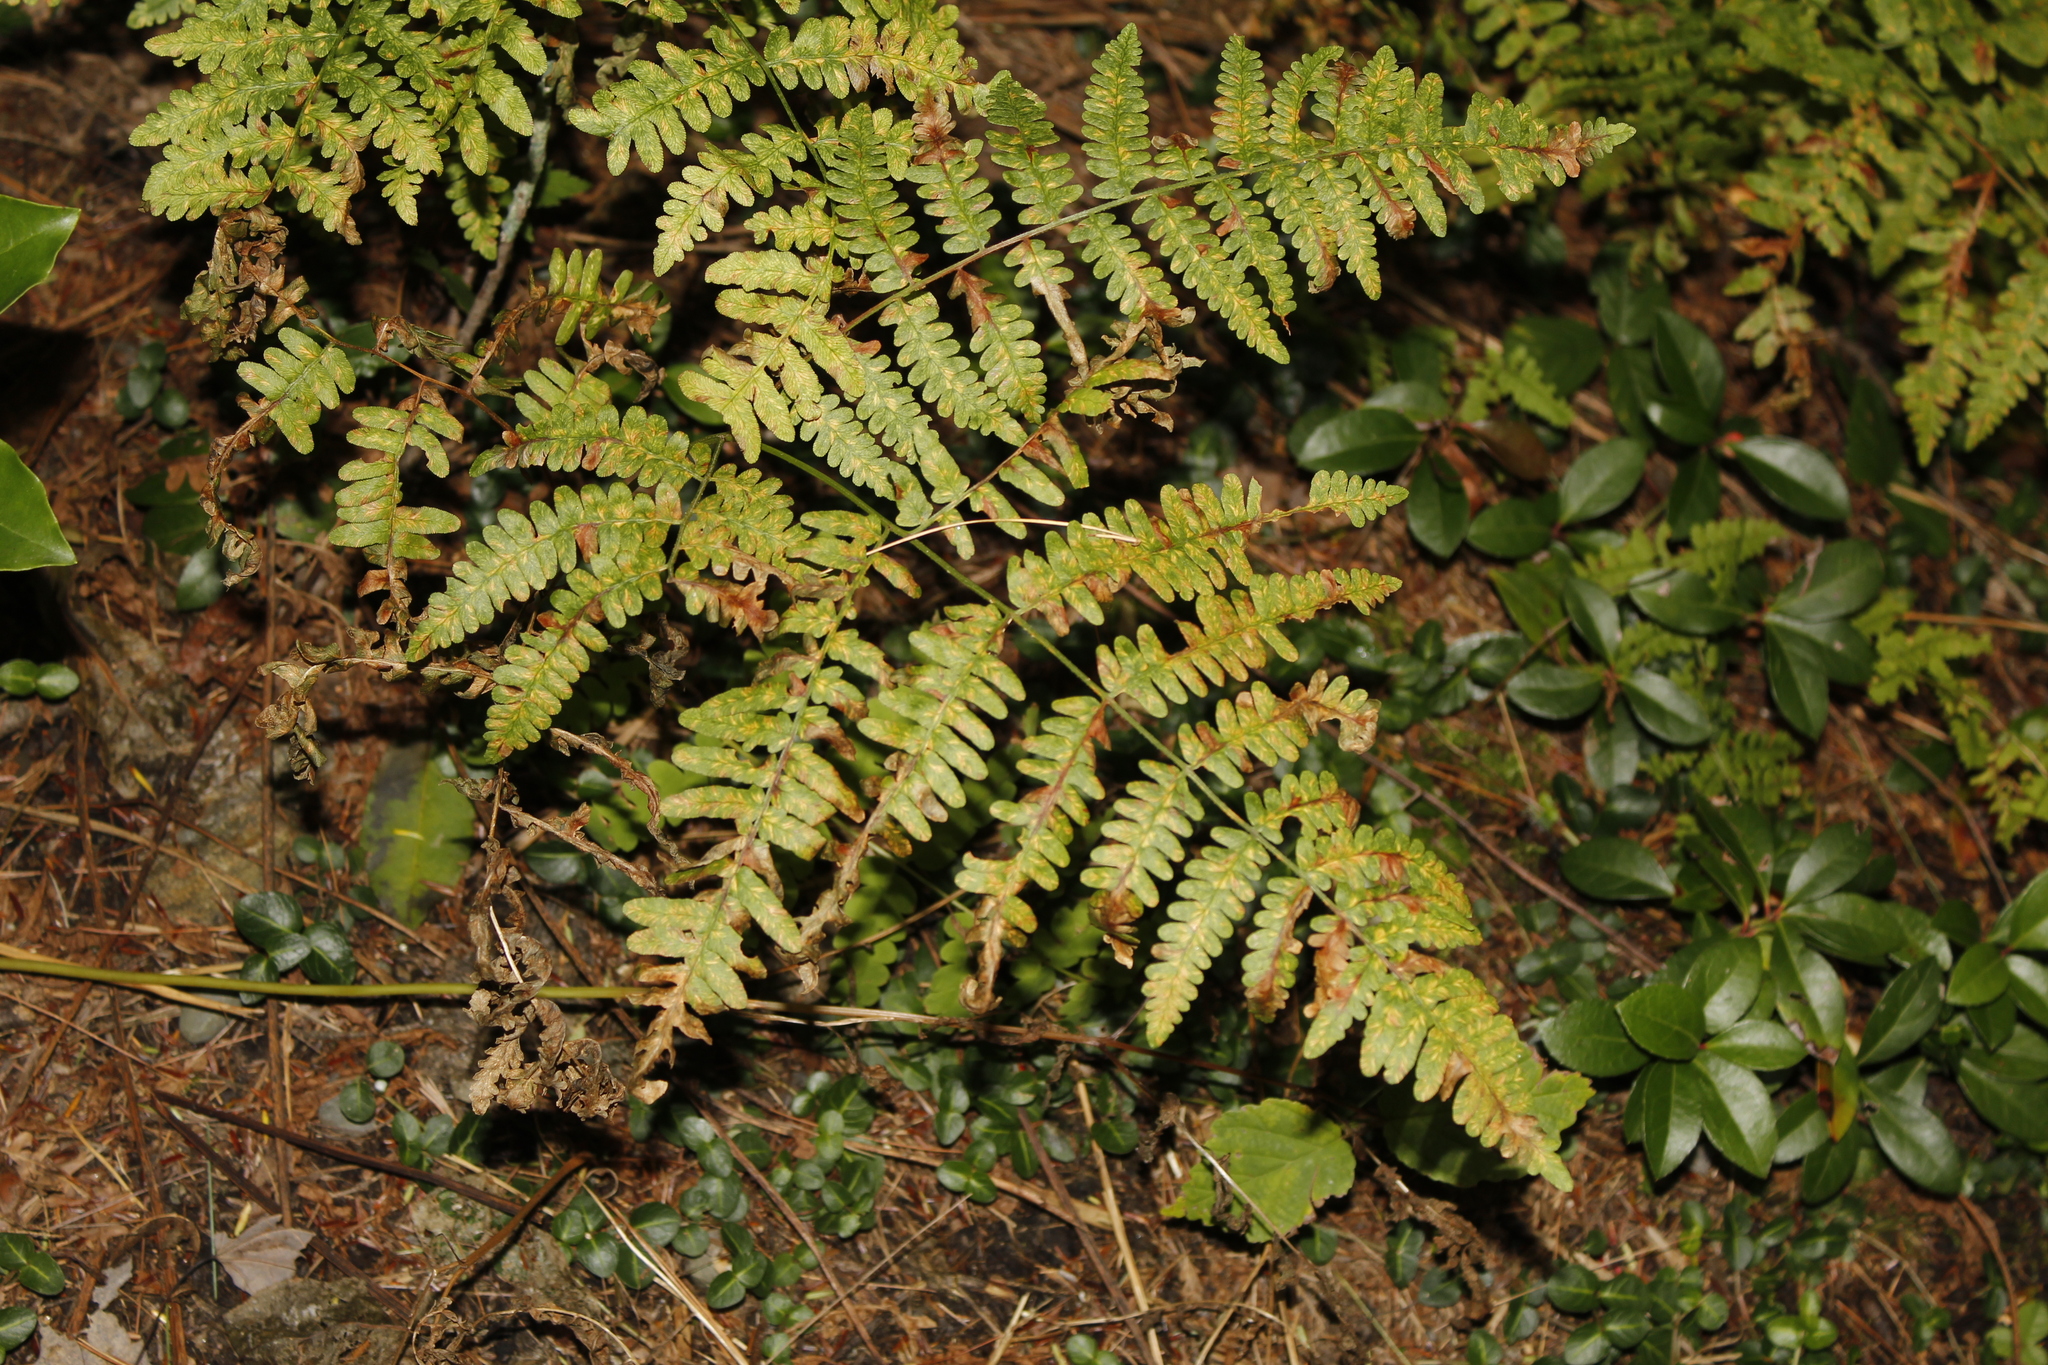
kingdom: Plantae
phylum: Tracheophyta
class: Polypodiopsida
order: Polypodiales
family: Dennstaedtiaceae
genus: Pteridium
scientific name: Pteridium aquilinum
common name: Bracken
